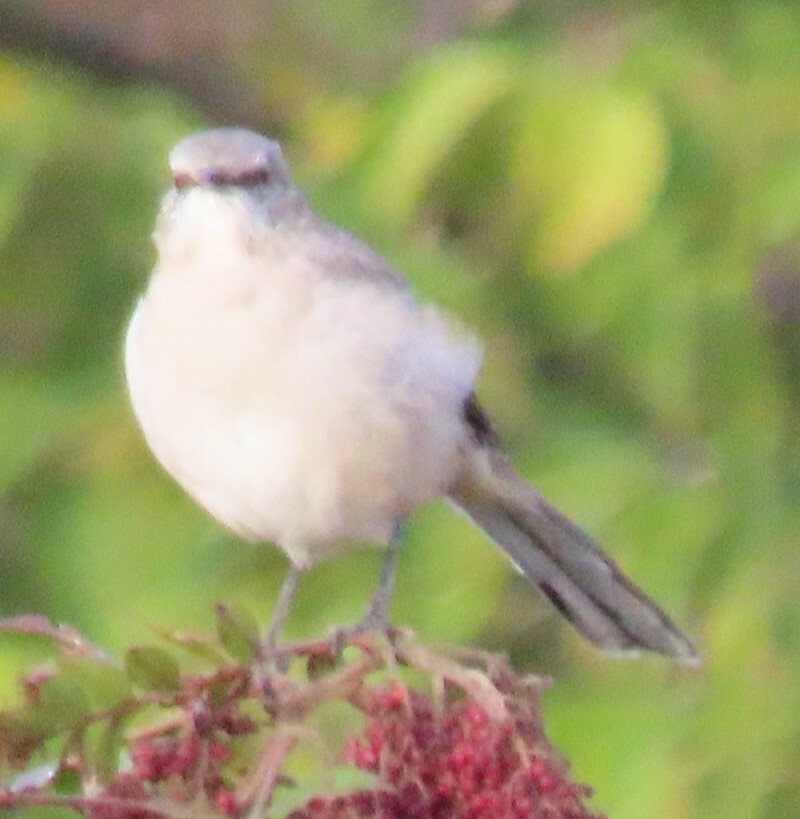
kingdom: Animalia
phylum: Chordata
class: Aves
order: Passeriformes
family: Mimidae
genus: Mimus
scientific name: Mimus polyglottos
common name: Northern mockingbird
